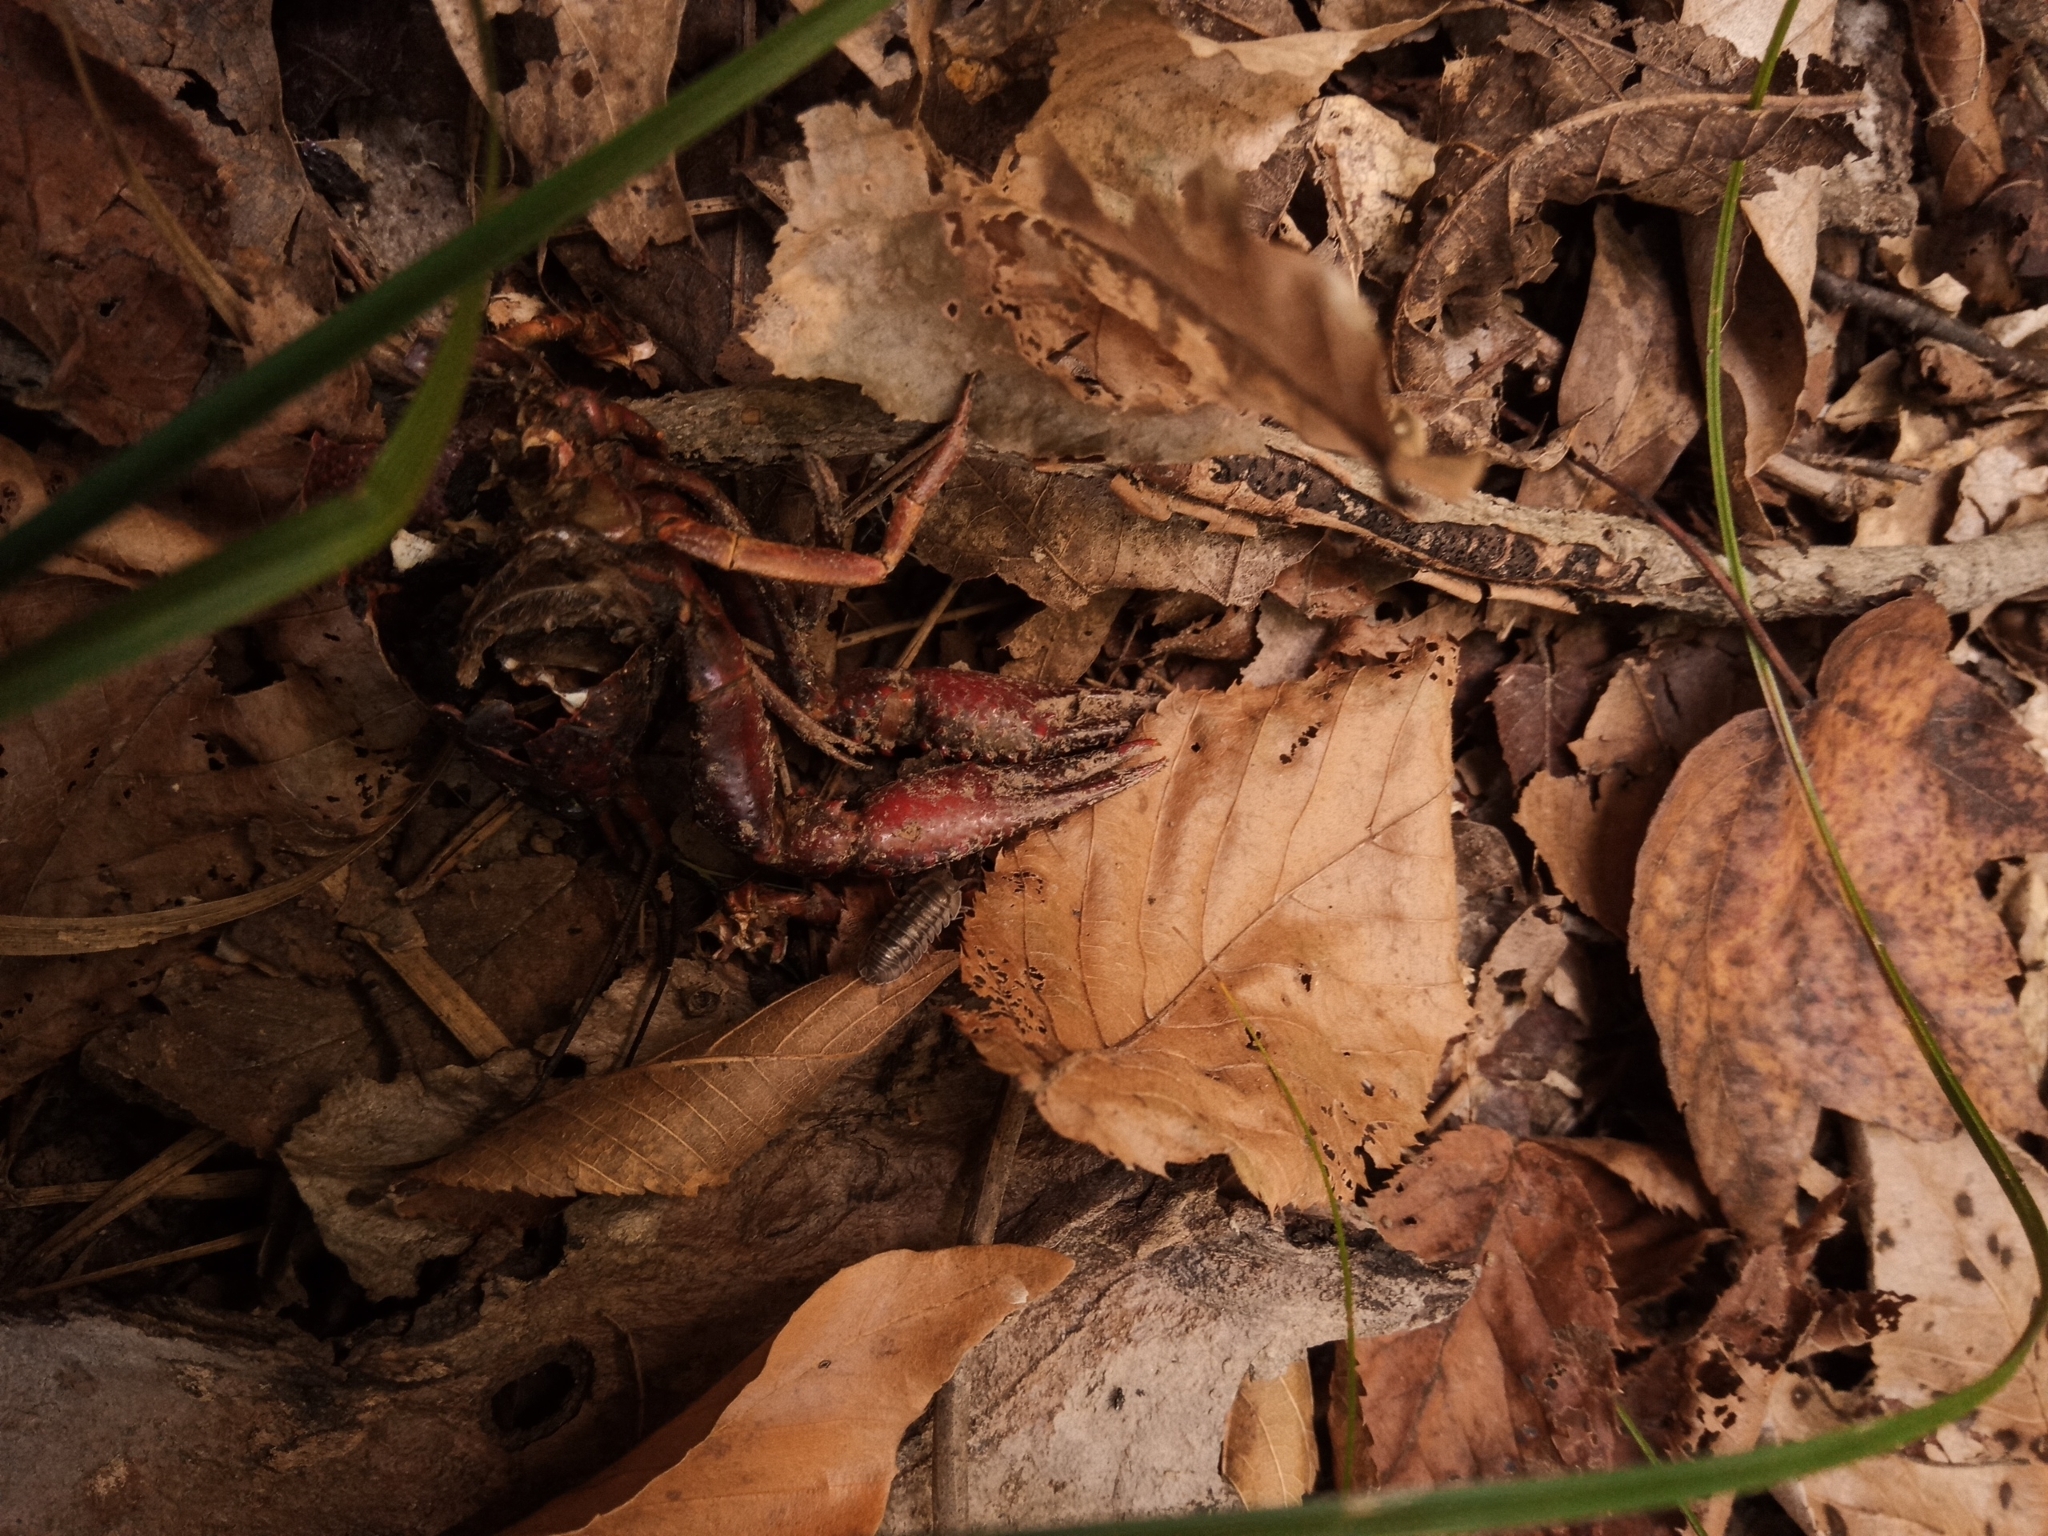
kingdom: Animalia
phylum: Arthropoda
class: Malacostraca
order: Decapoda
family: Cambaridae
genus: Procambarus
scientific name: Procambarus clarkii
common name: Red swamp crayfish
